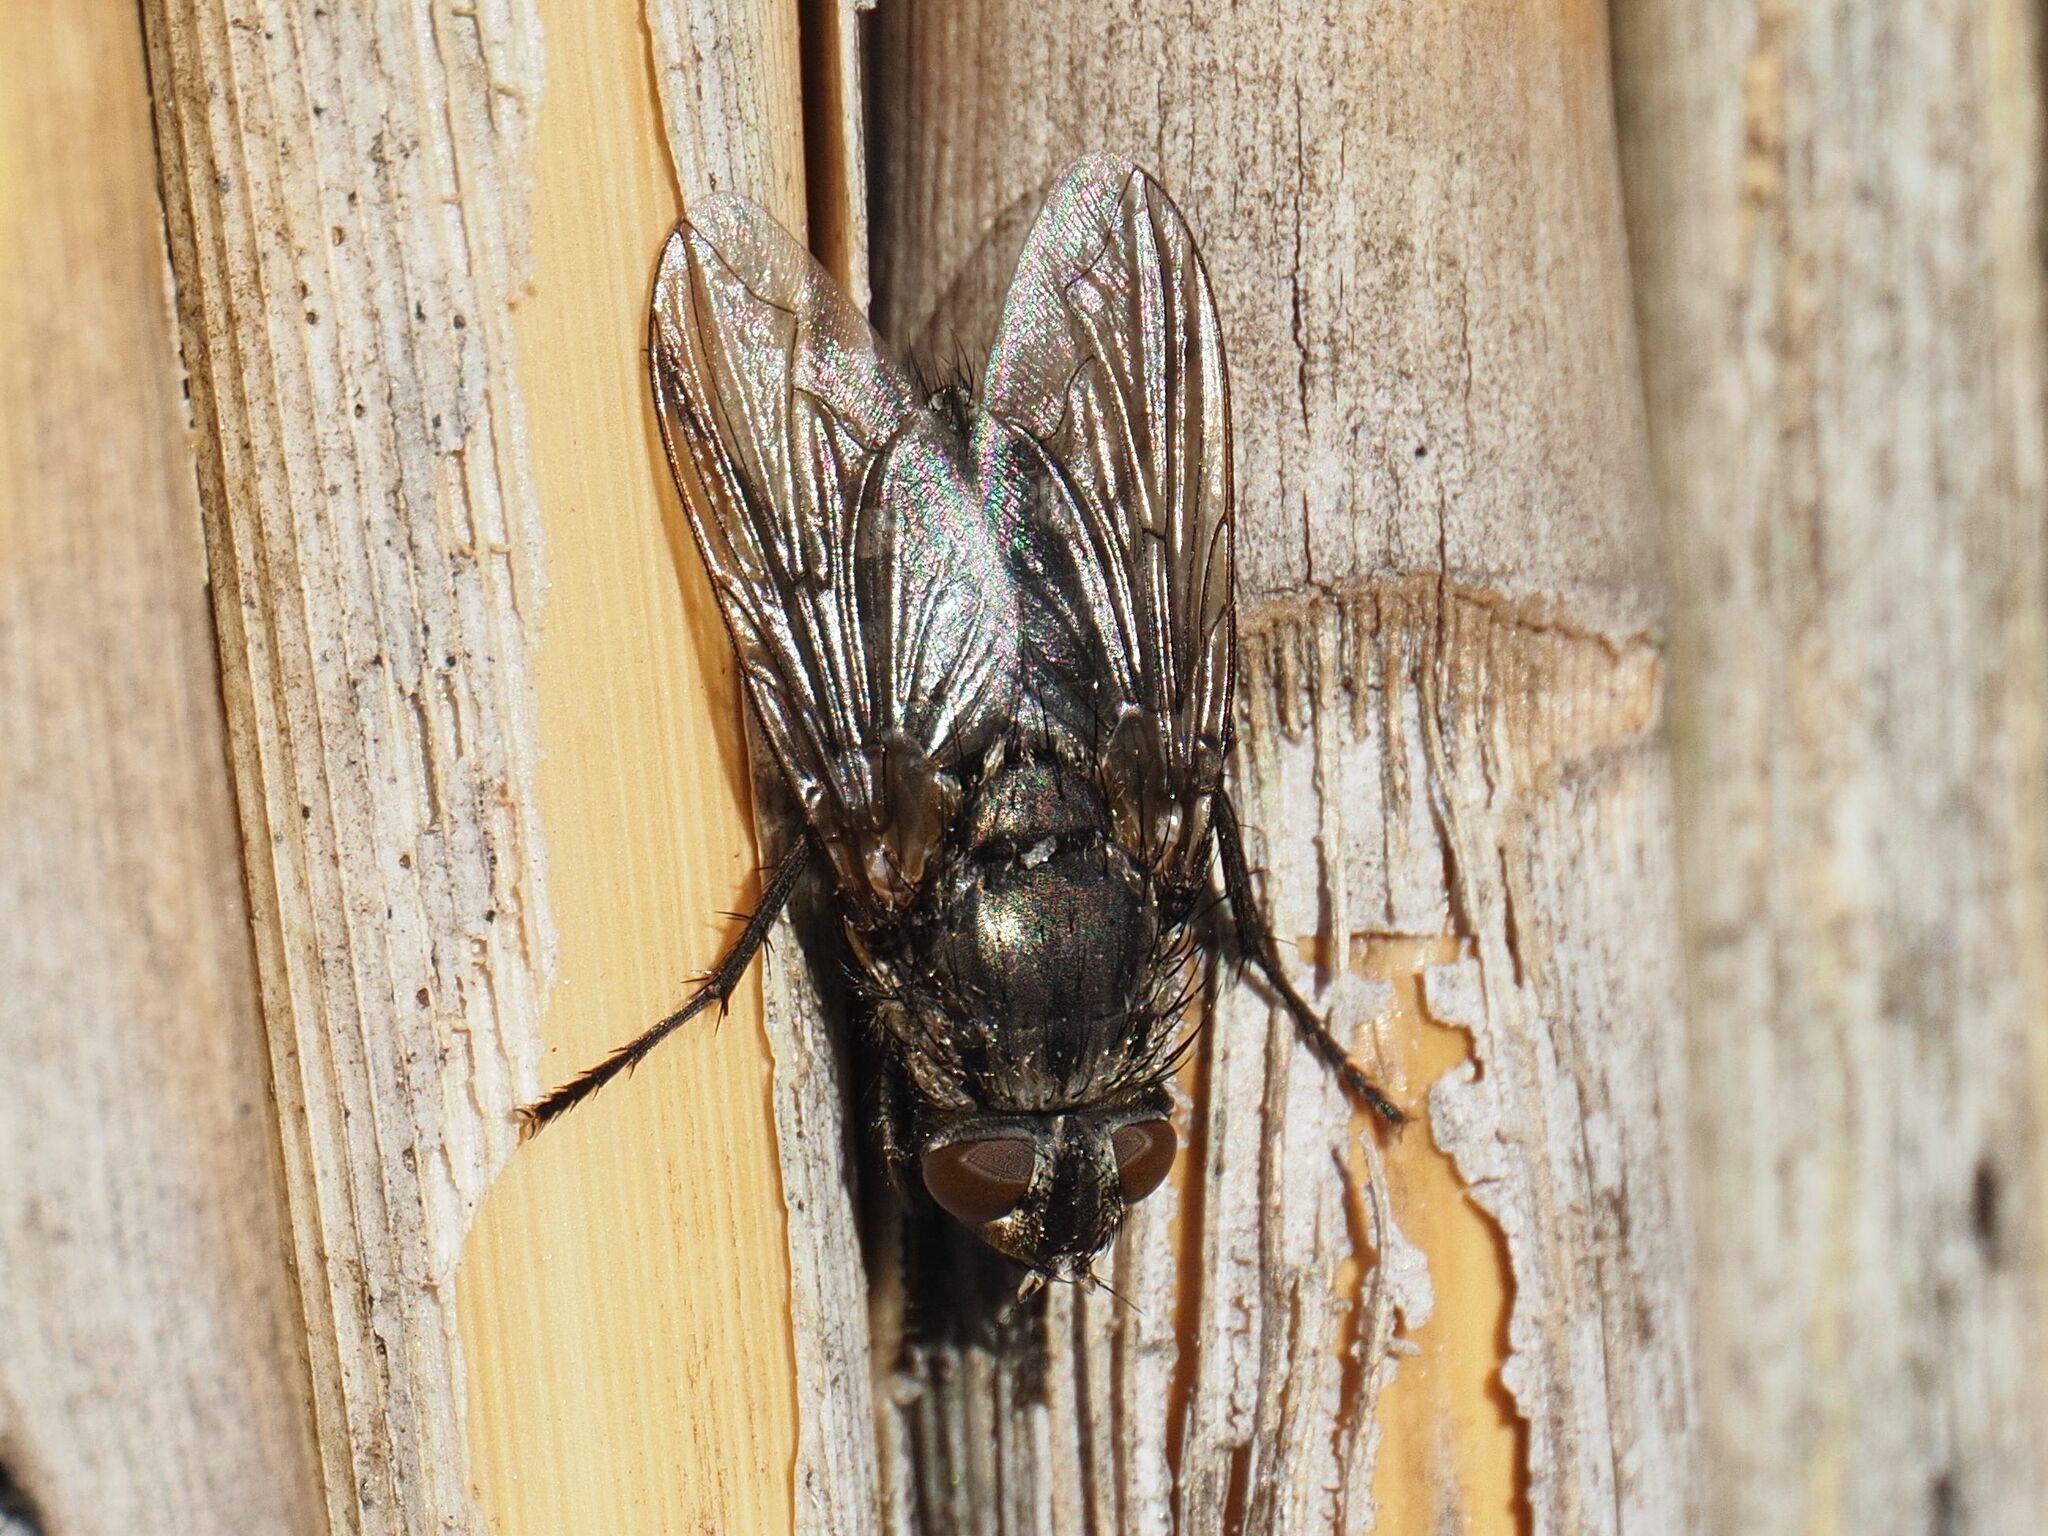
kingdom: Animalia
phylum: Arthropoda
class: Insecta
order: Diptera
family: Polleniidae
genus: Pollenia
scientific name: Pollenia vagabunda
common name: Vagabund cluster fly
